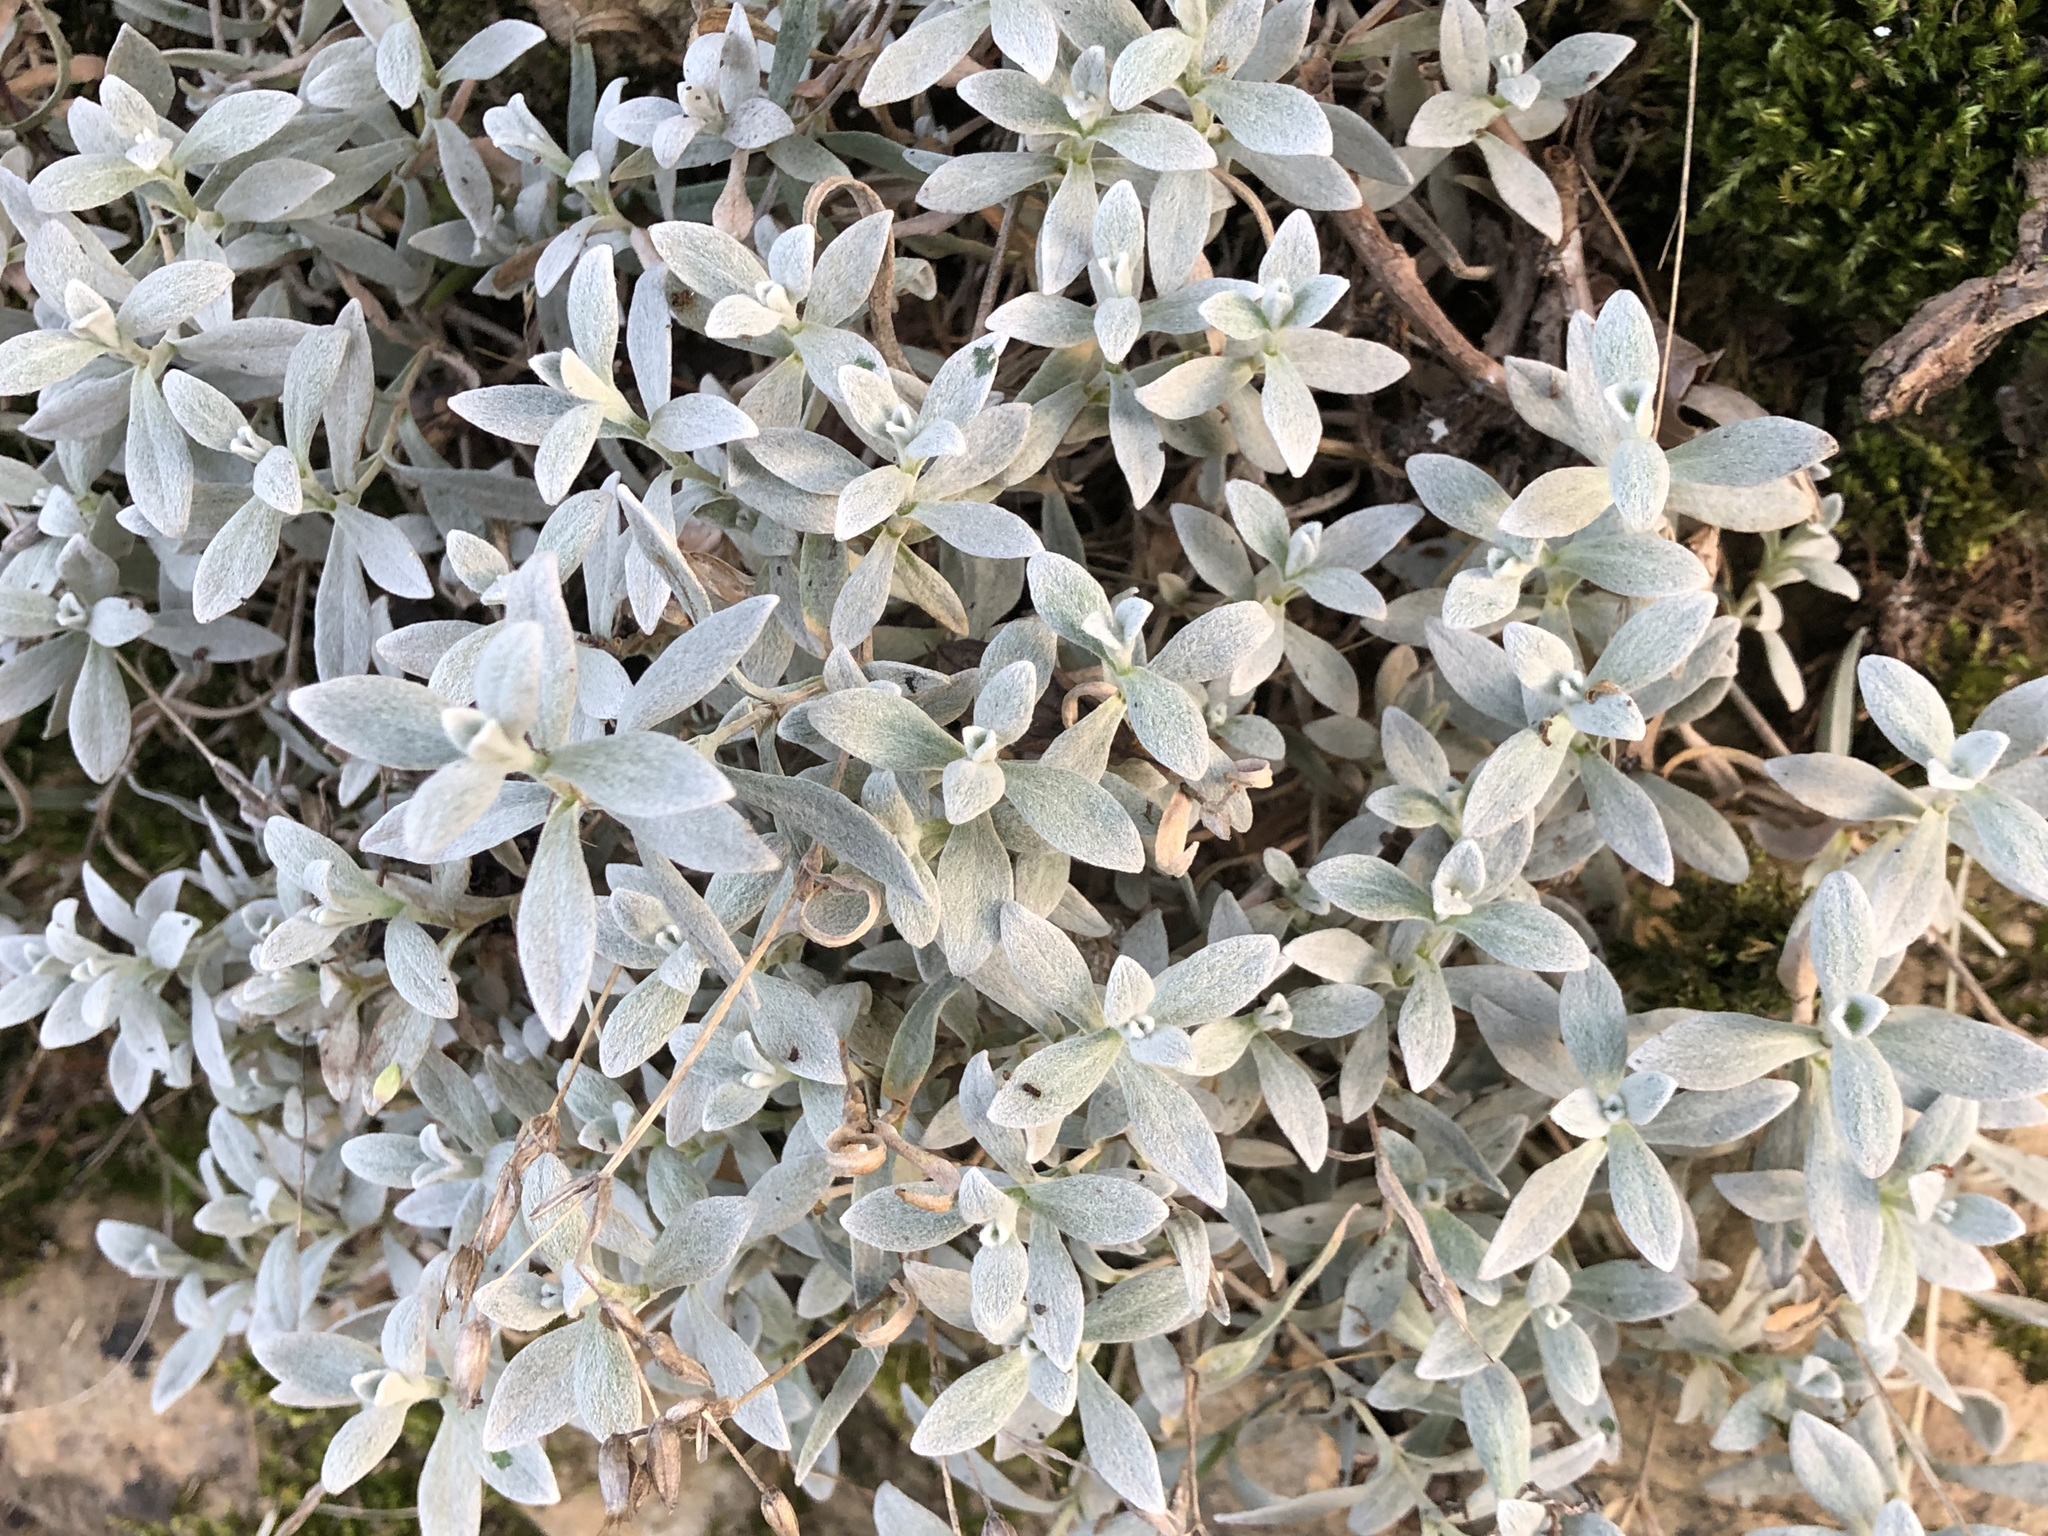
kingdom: Plantae
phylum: Tracheophyta
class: Magnoliopsida
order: Caryophyllales
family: Caryophyllaceae
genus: Cerastium
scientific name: Cerastium tomentosum
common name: Snow-in-summer
